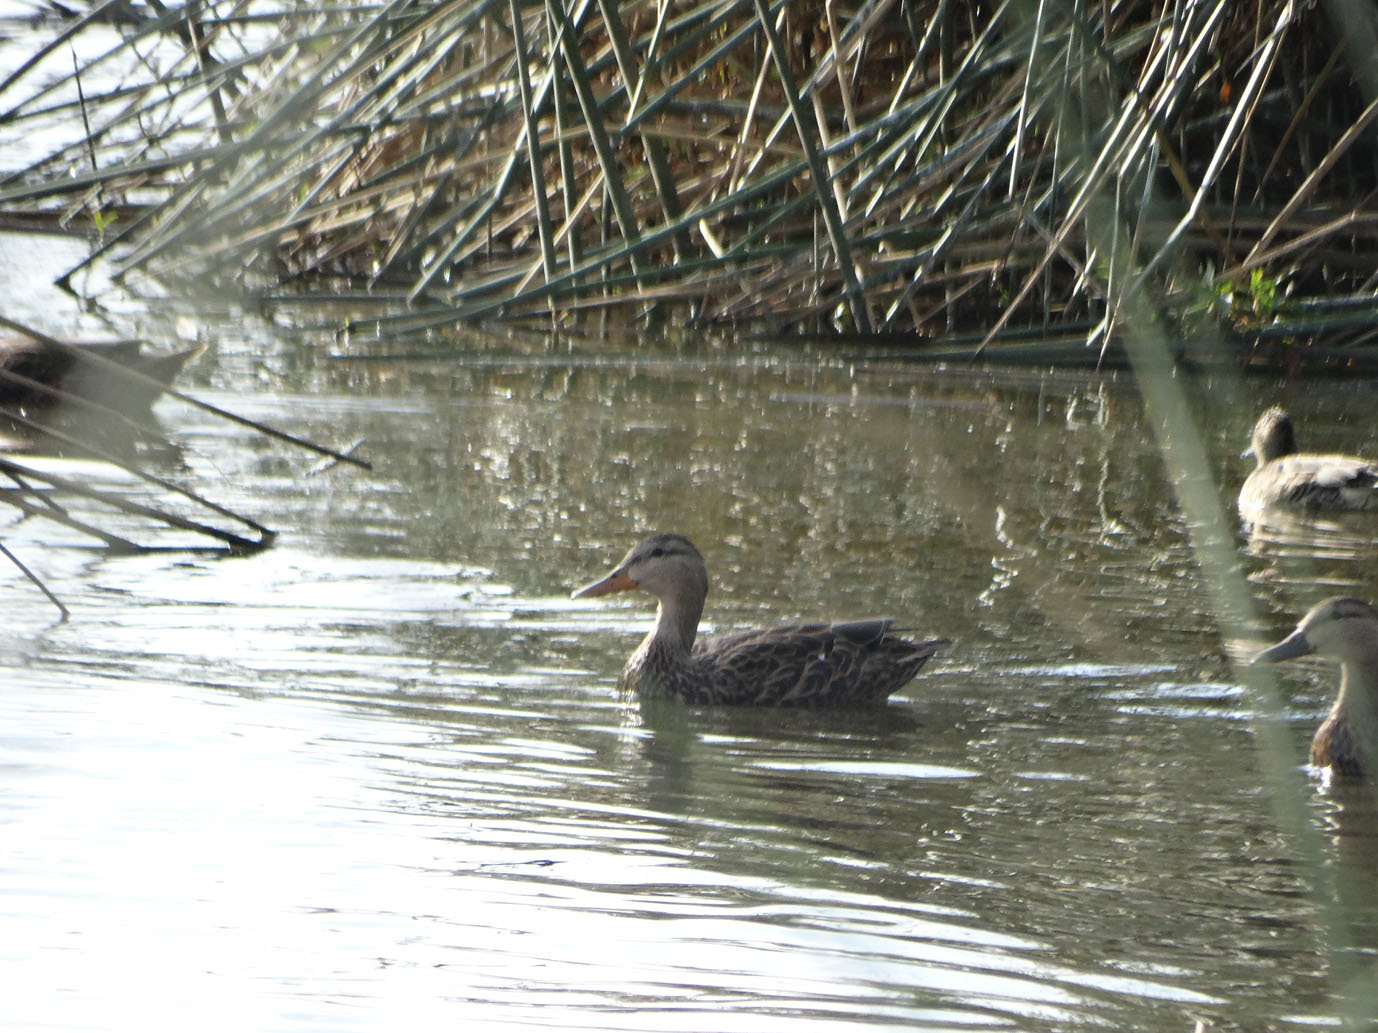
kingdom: Animalia
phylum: Chordata
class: Aves
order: Anseriformes
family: Anatidae
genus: Anas
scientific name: Anas diazi
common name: Mexican duck
